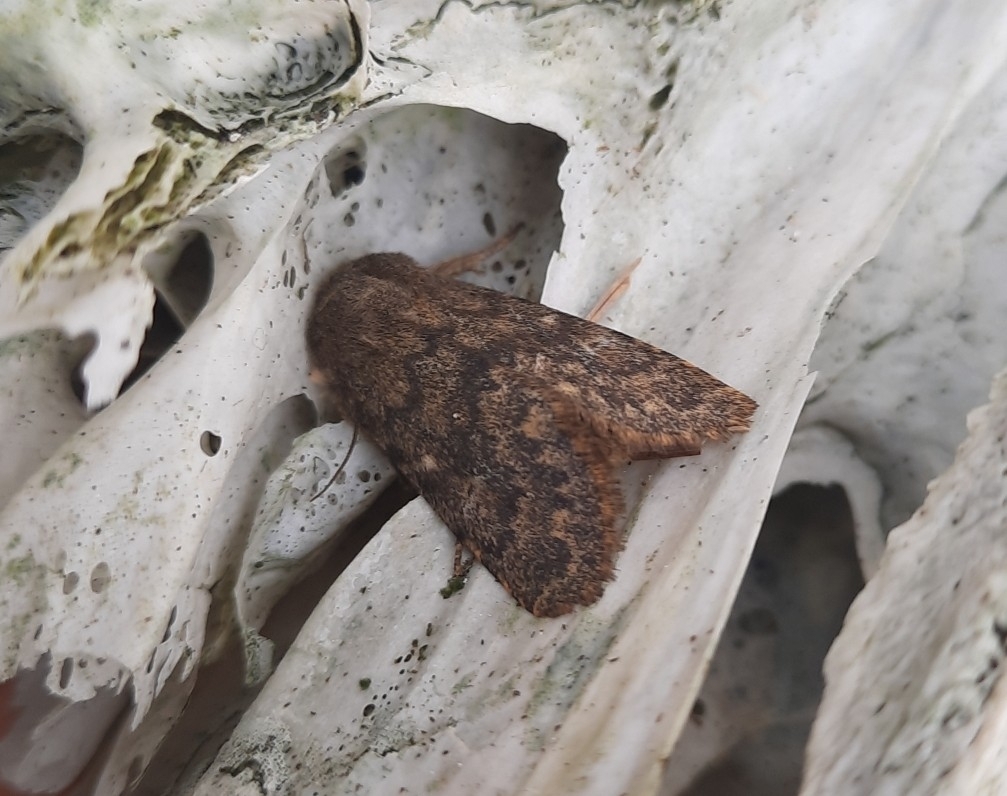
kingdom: Animalia
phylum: Arthropoda
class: Insecta
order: Lepidoptera
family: Noctuidae
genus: Dasypolia
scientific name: Dasypolia templi
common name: Brindled ochre
